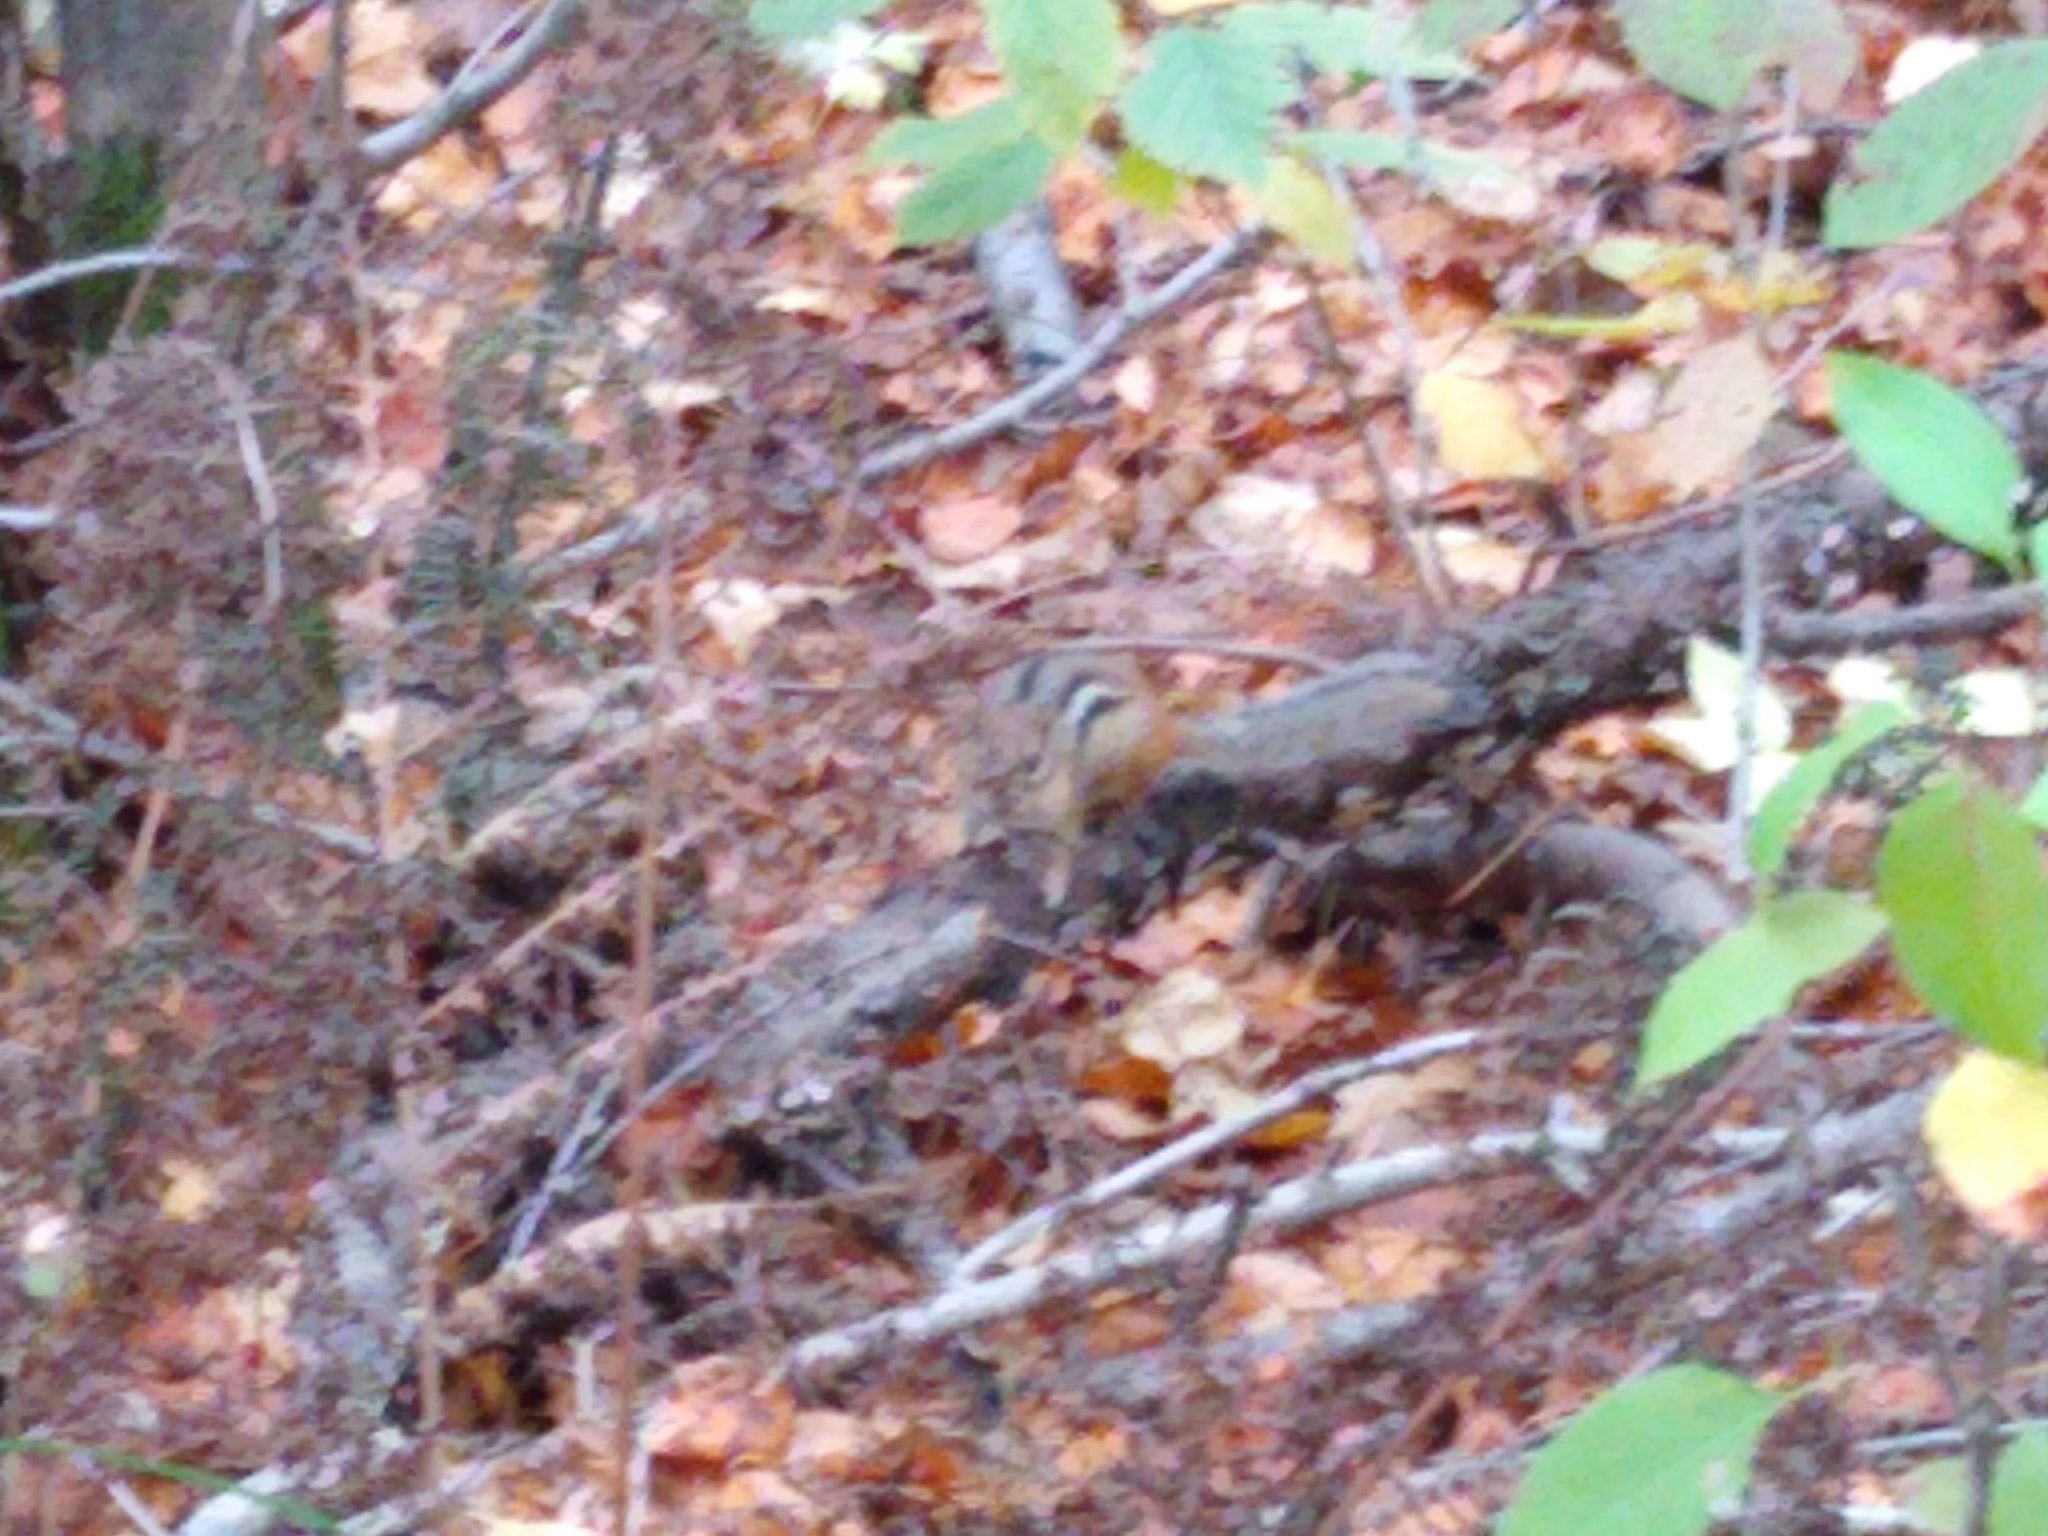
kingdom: Animalia
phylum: Chordata
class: Mammalia
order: Rodentia
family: Sciuridae
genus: Tamias
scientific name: Tamias striatus
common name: Eastern chipmunk
